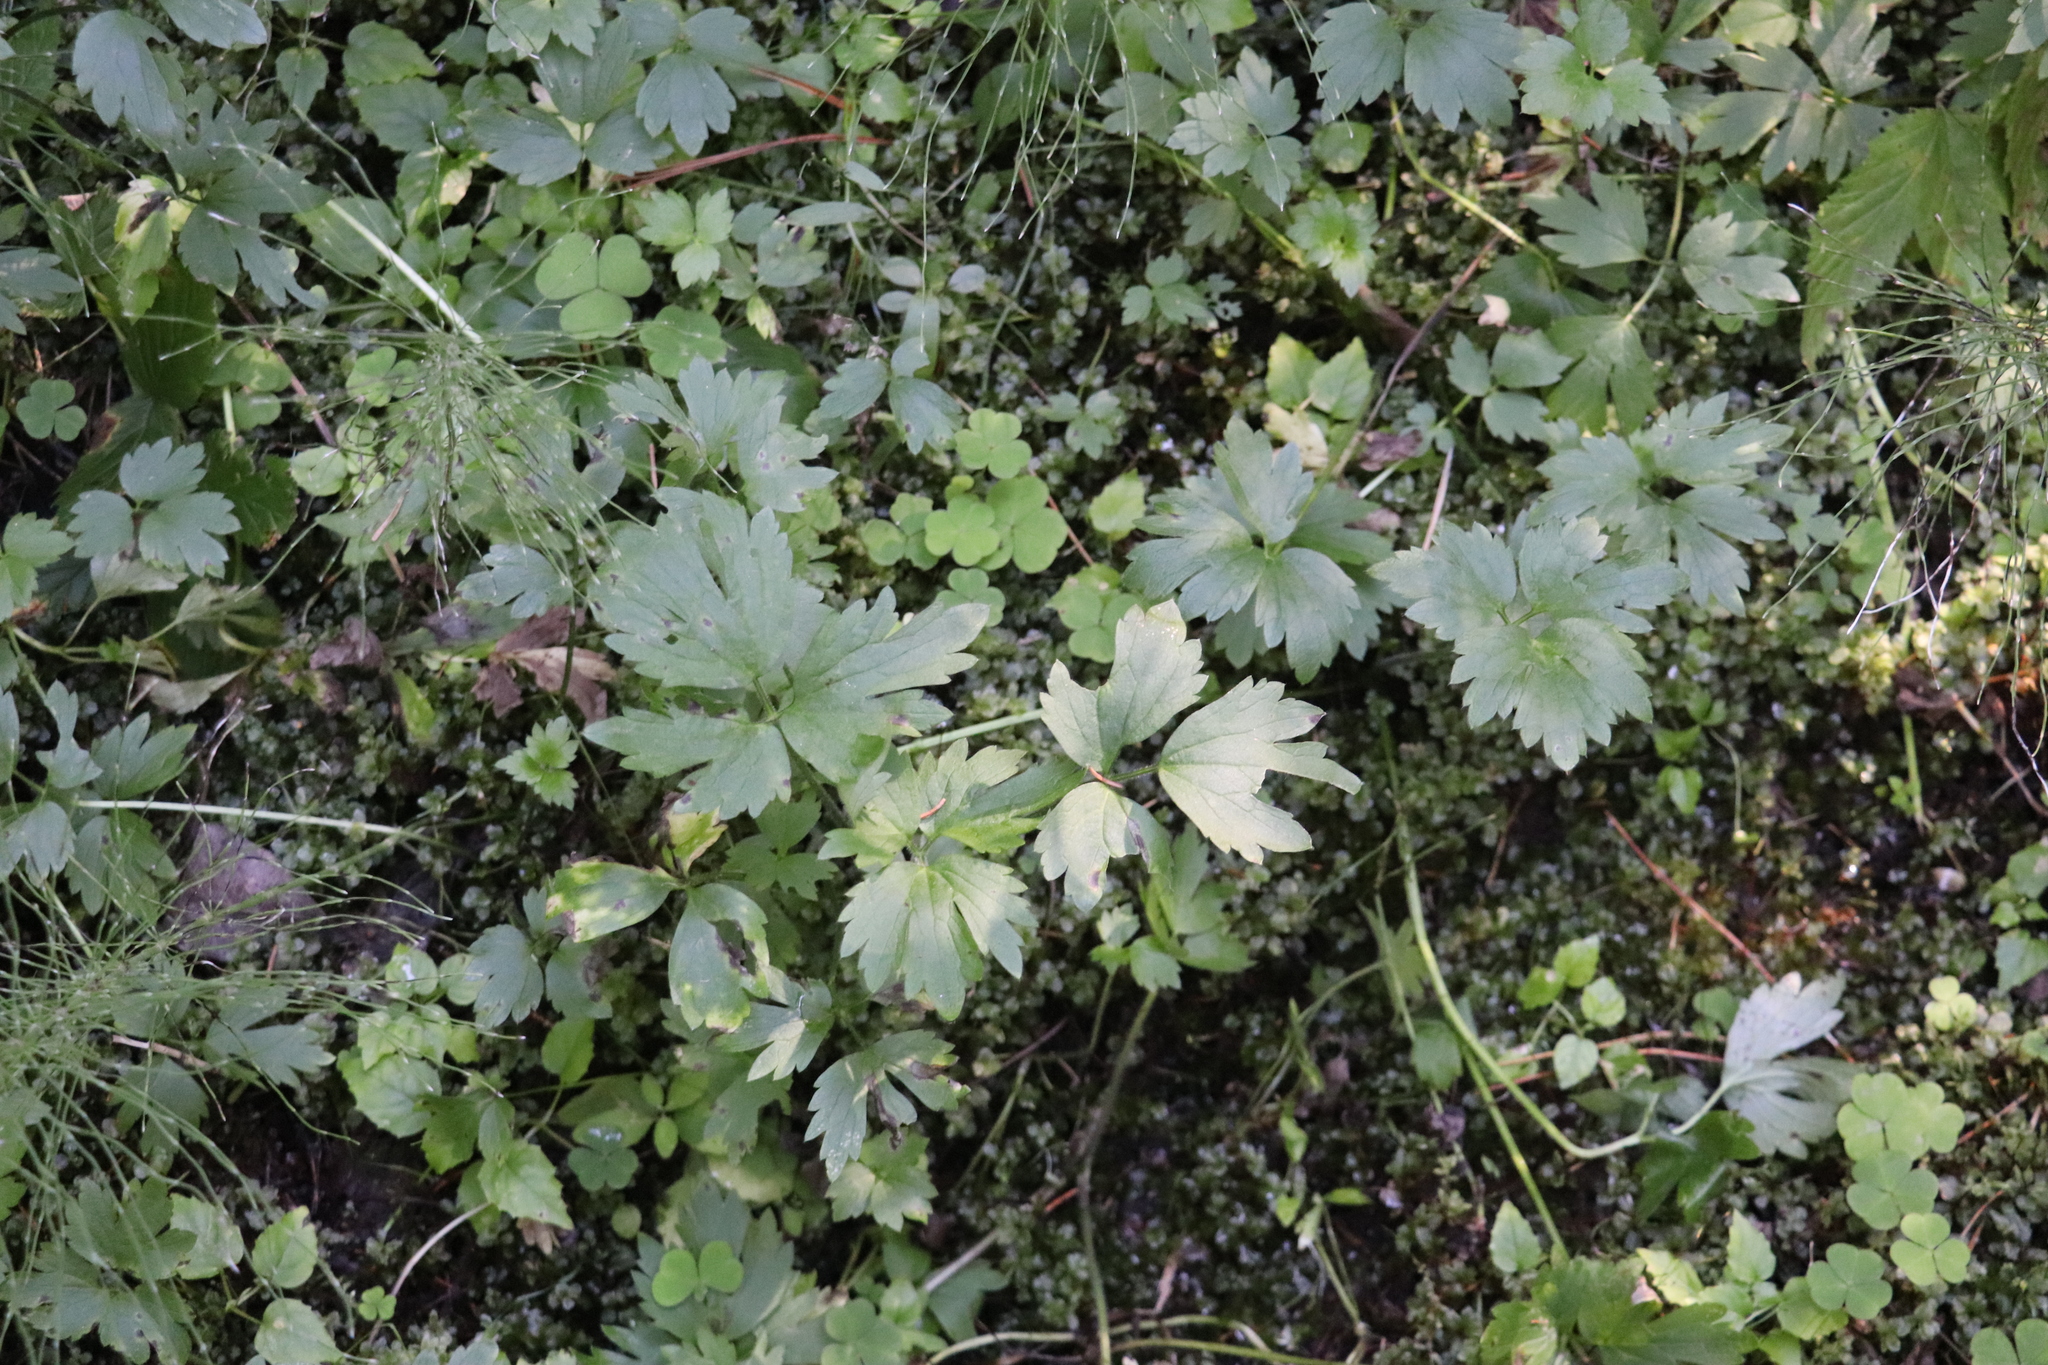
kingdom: Plantae
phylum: Tracheophyta
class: Magnoliopsida
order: Ranunculales
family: Ranunculaceae
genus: Ranunculus
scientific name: Ranunculus repens
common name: Creeping buttercup
